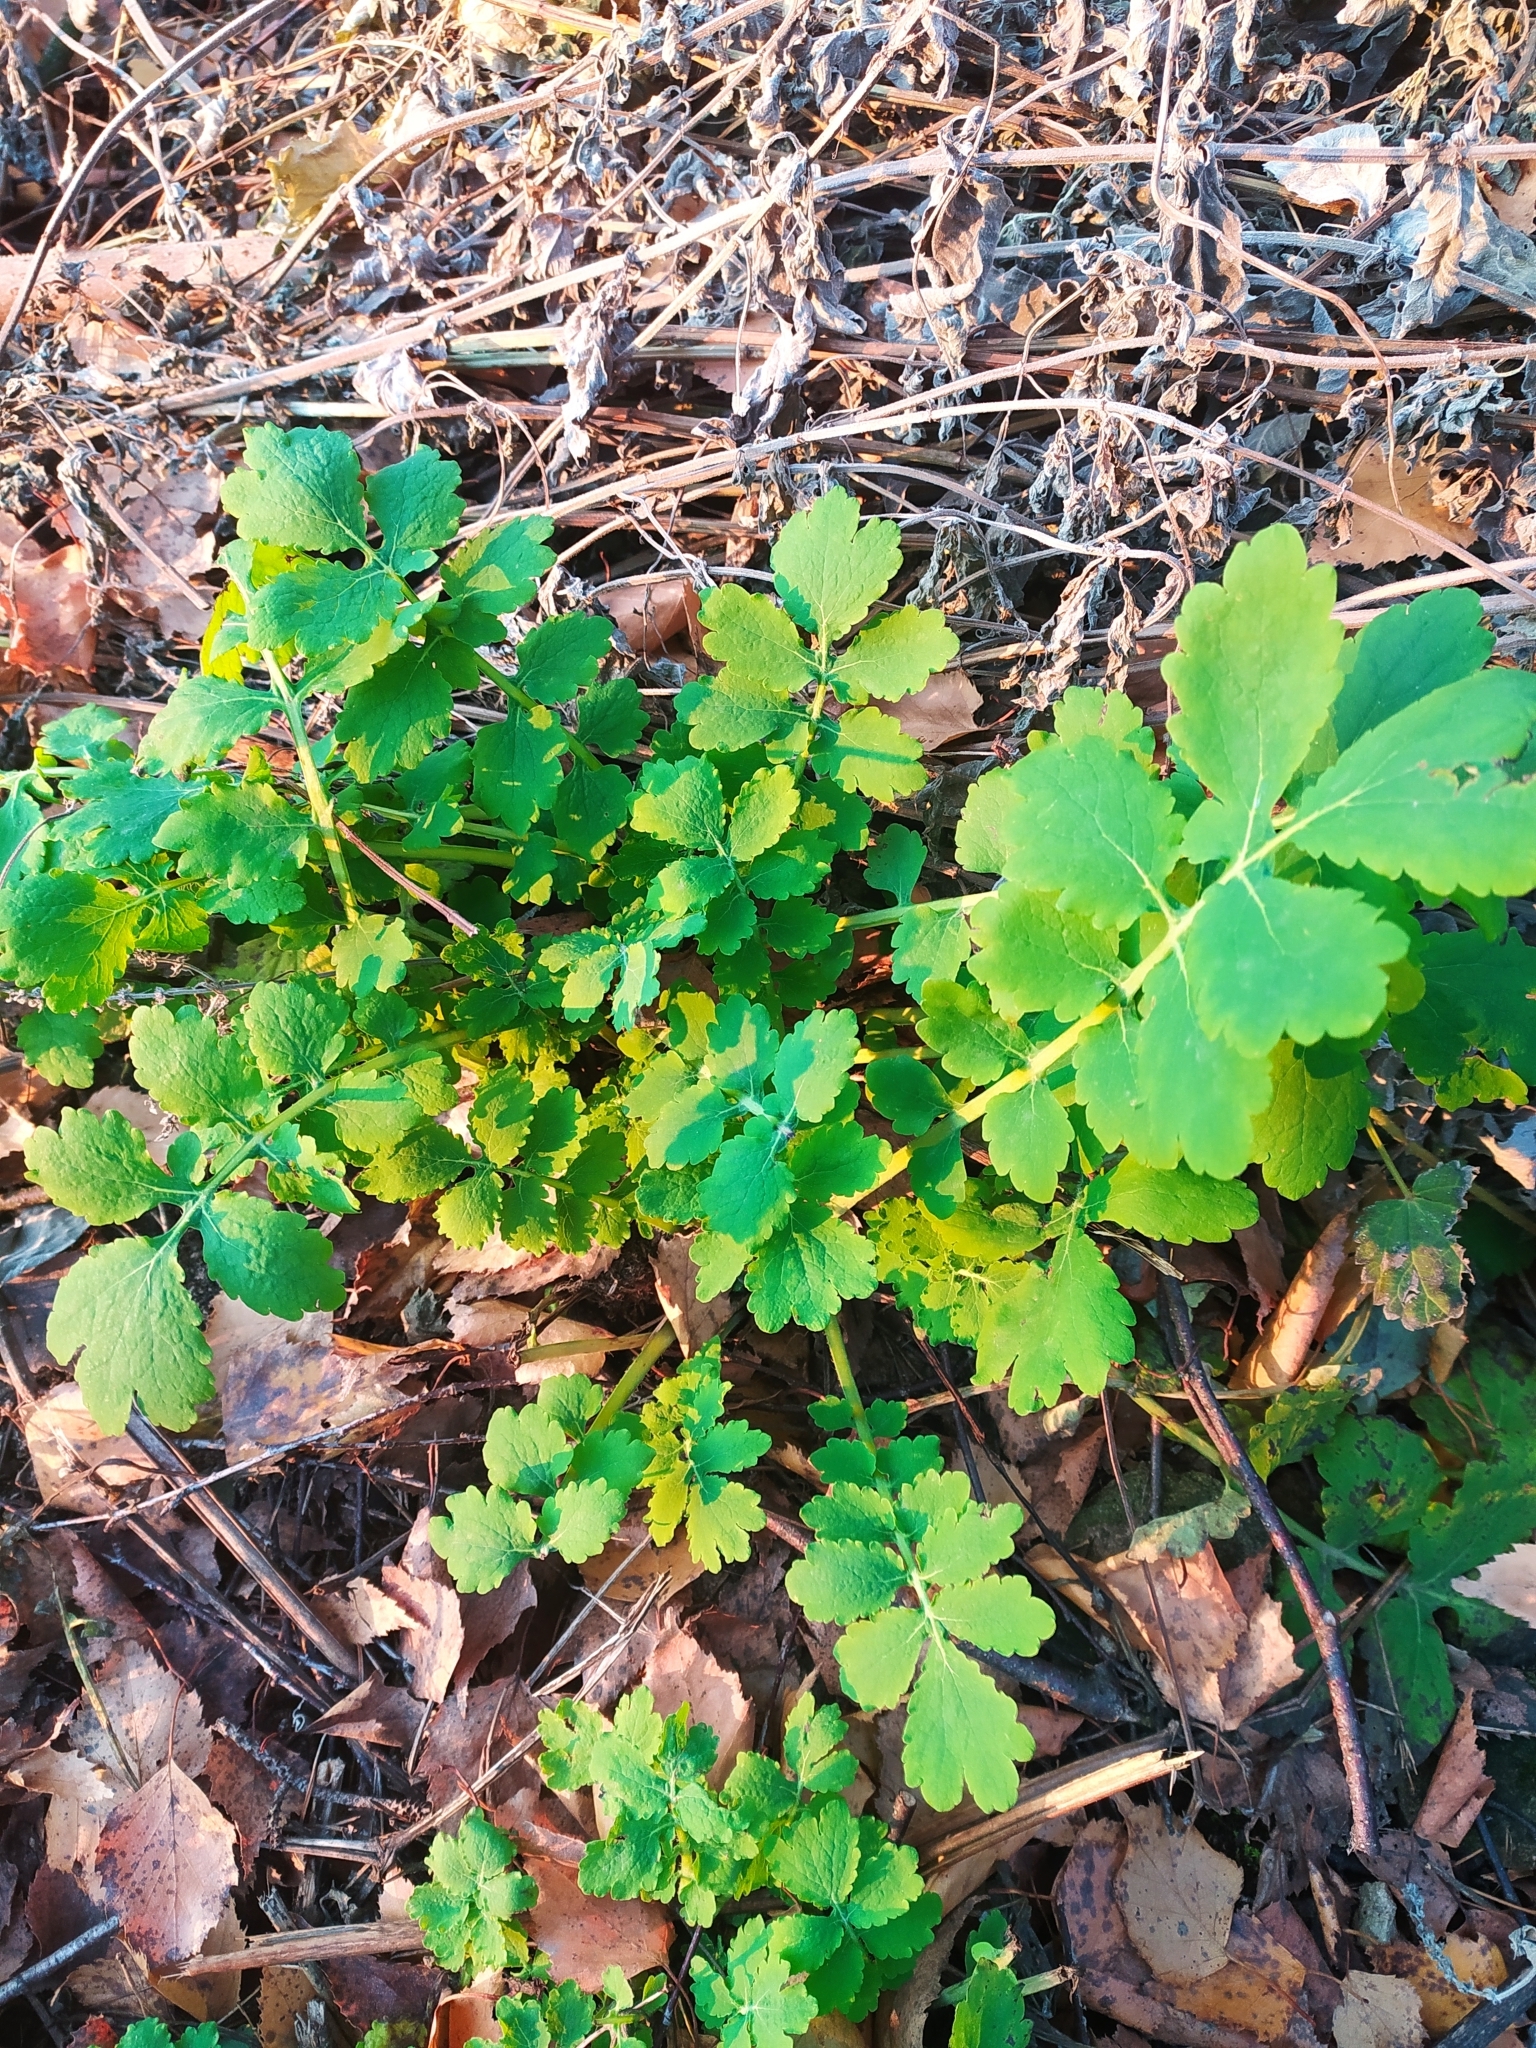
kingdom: Plantae
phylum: Tracheophyta
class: Magnoliopsida
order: Ranunculales
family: Papaveraceae
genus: Chelidonium
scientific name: Chelidonium majus
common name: Greater celandine
